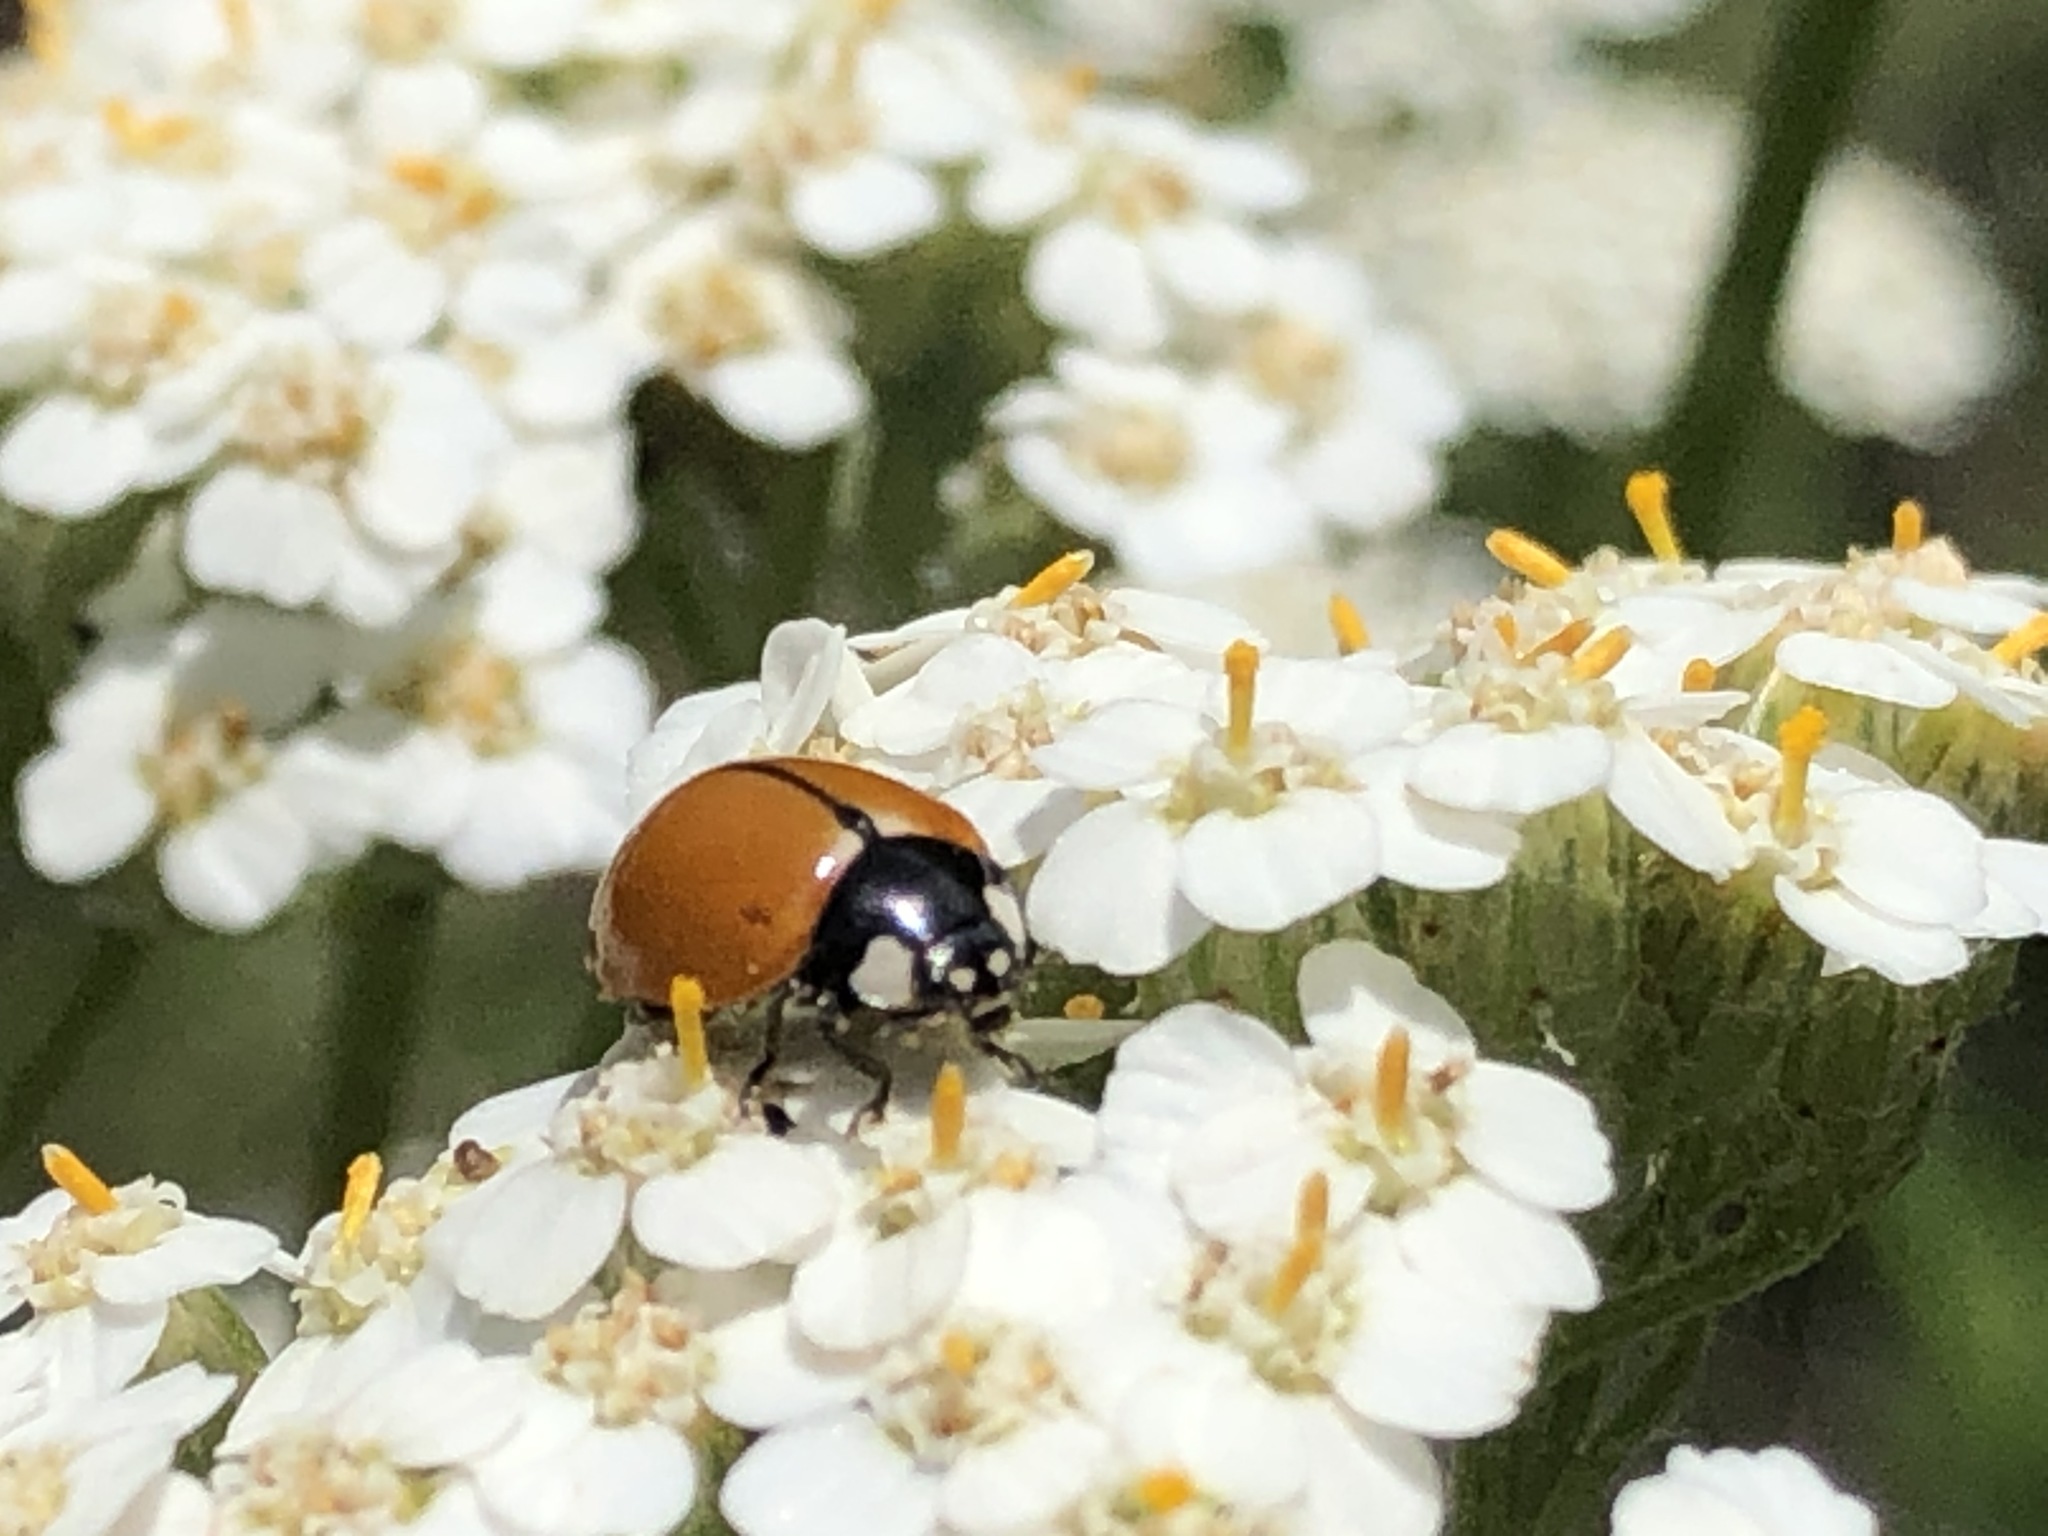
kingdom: Animalia
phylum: Arthropoda
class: Insecta
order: Coleoptera
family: Coccinellidae
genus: Coccinella
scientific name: Coccinella californica
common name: Lady beetle
